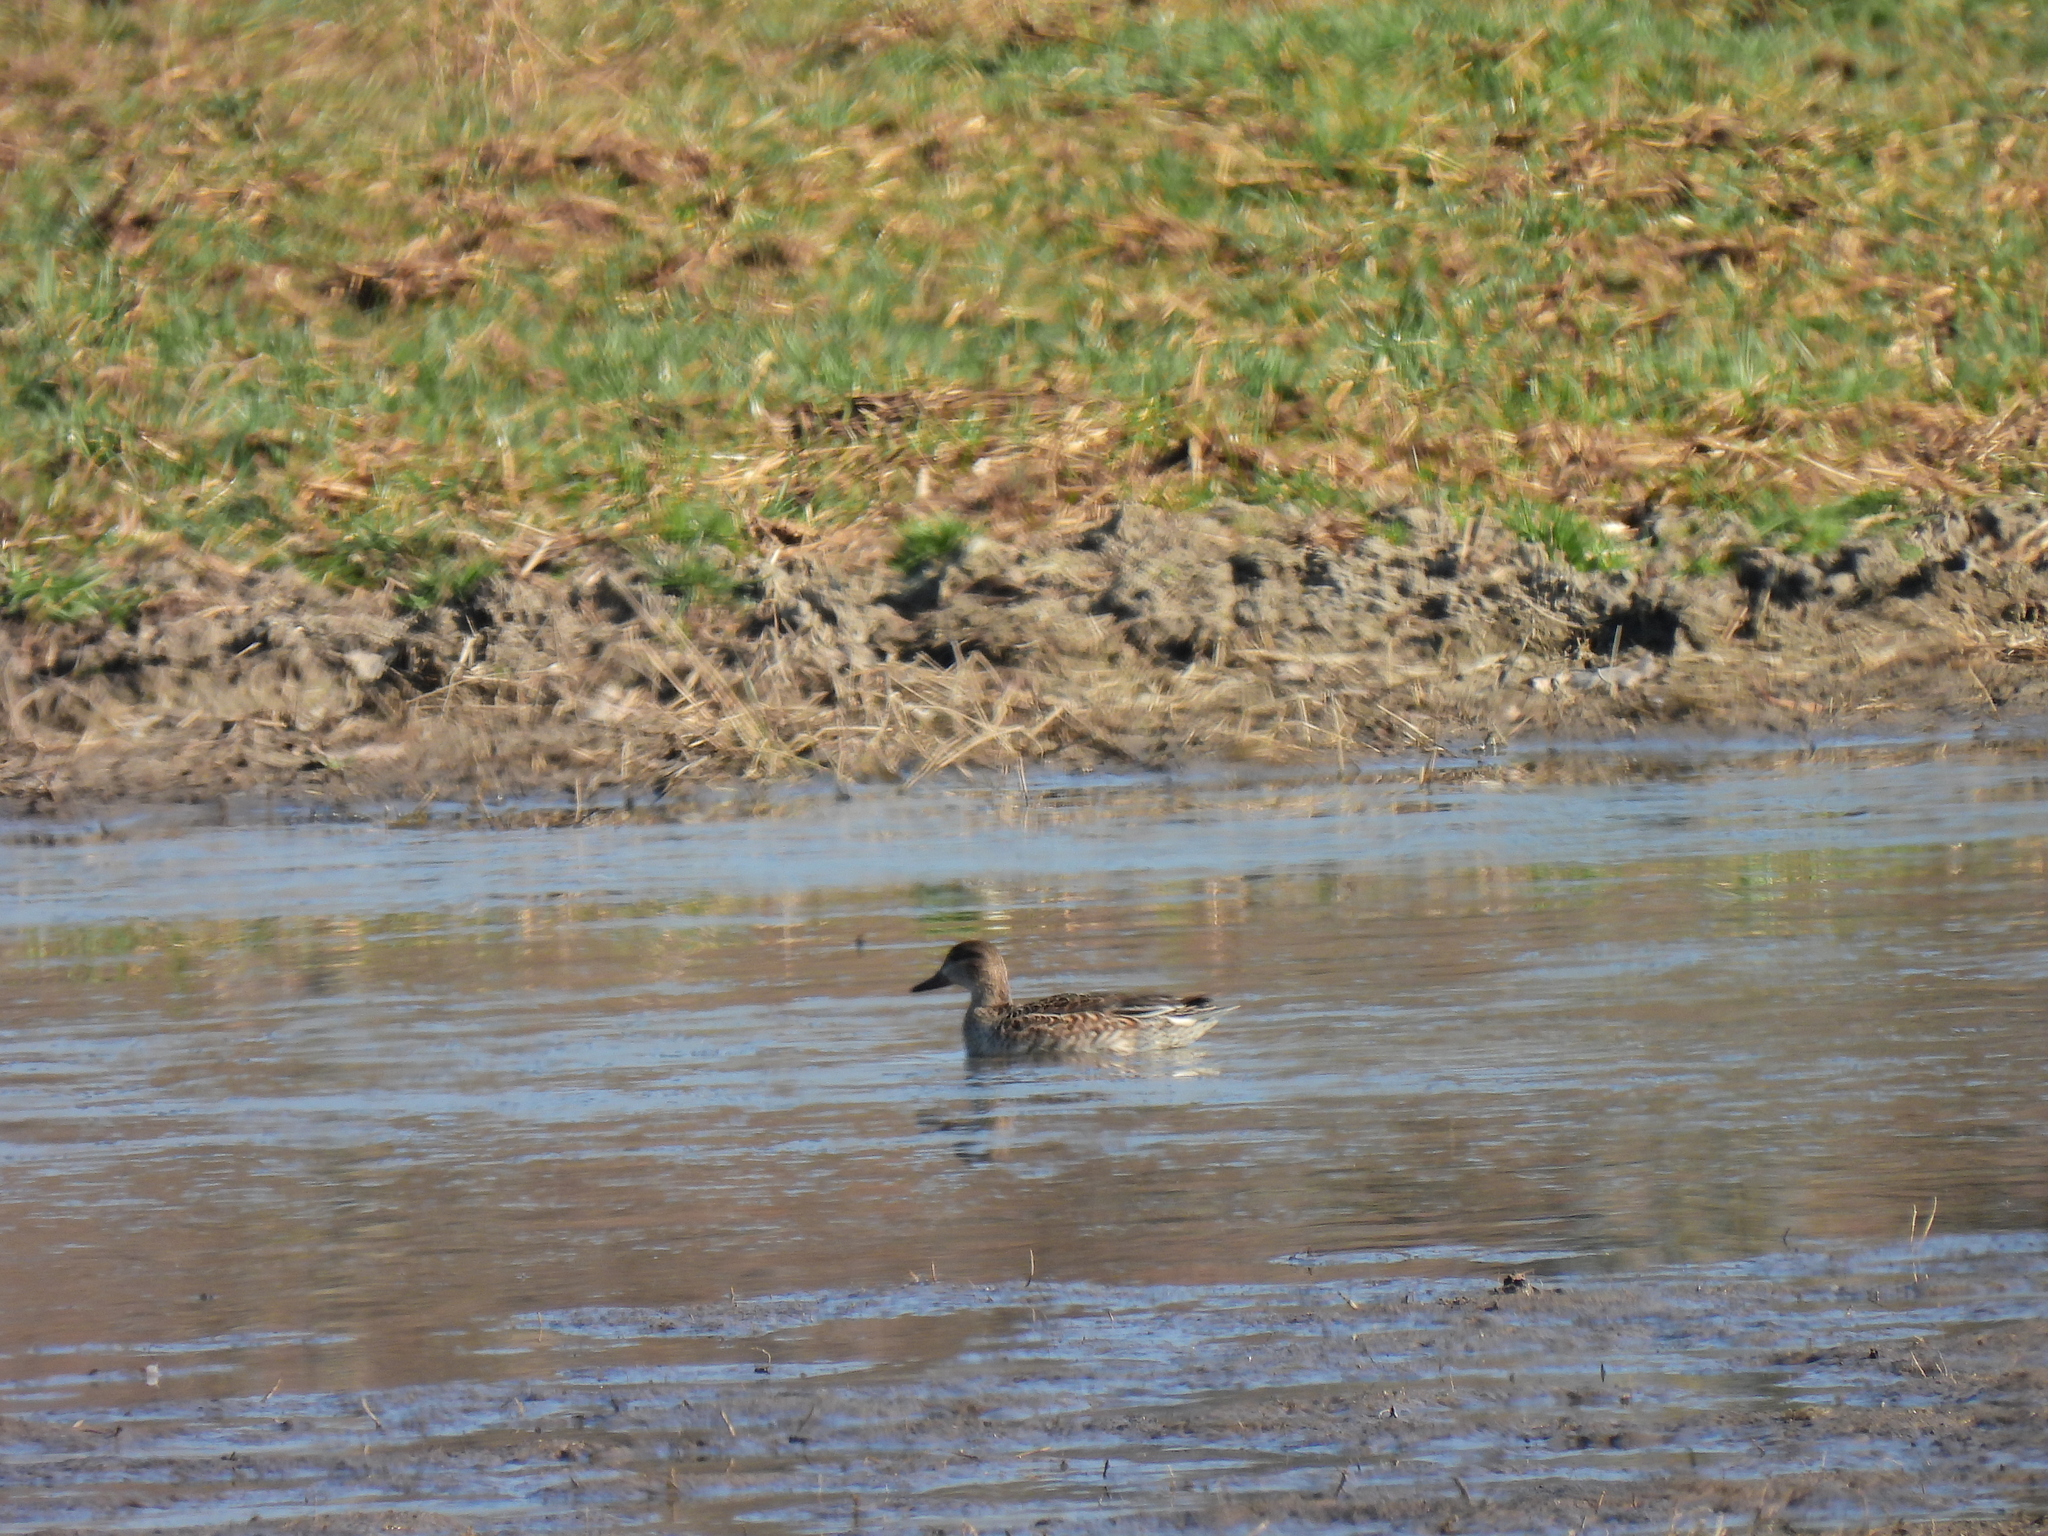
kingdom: Animalia
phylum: Chordata
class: Aves
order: Anseriformes
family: Anatidae
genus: Anas
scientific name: Anas crecca
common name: Eurasian teal
